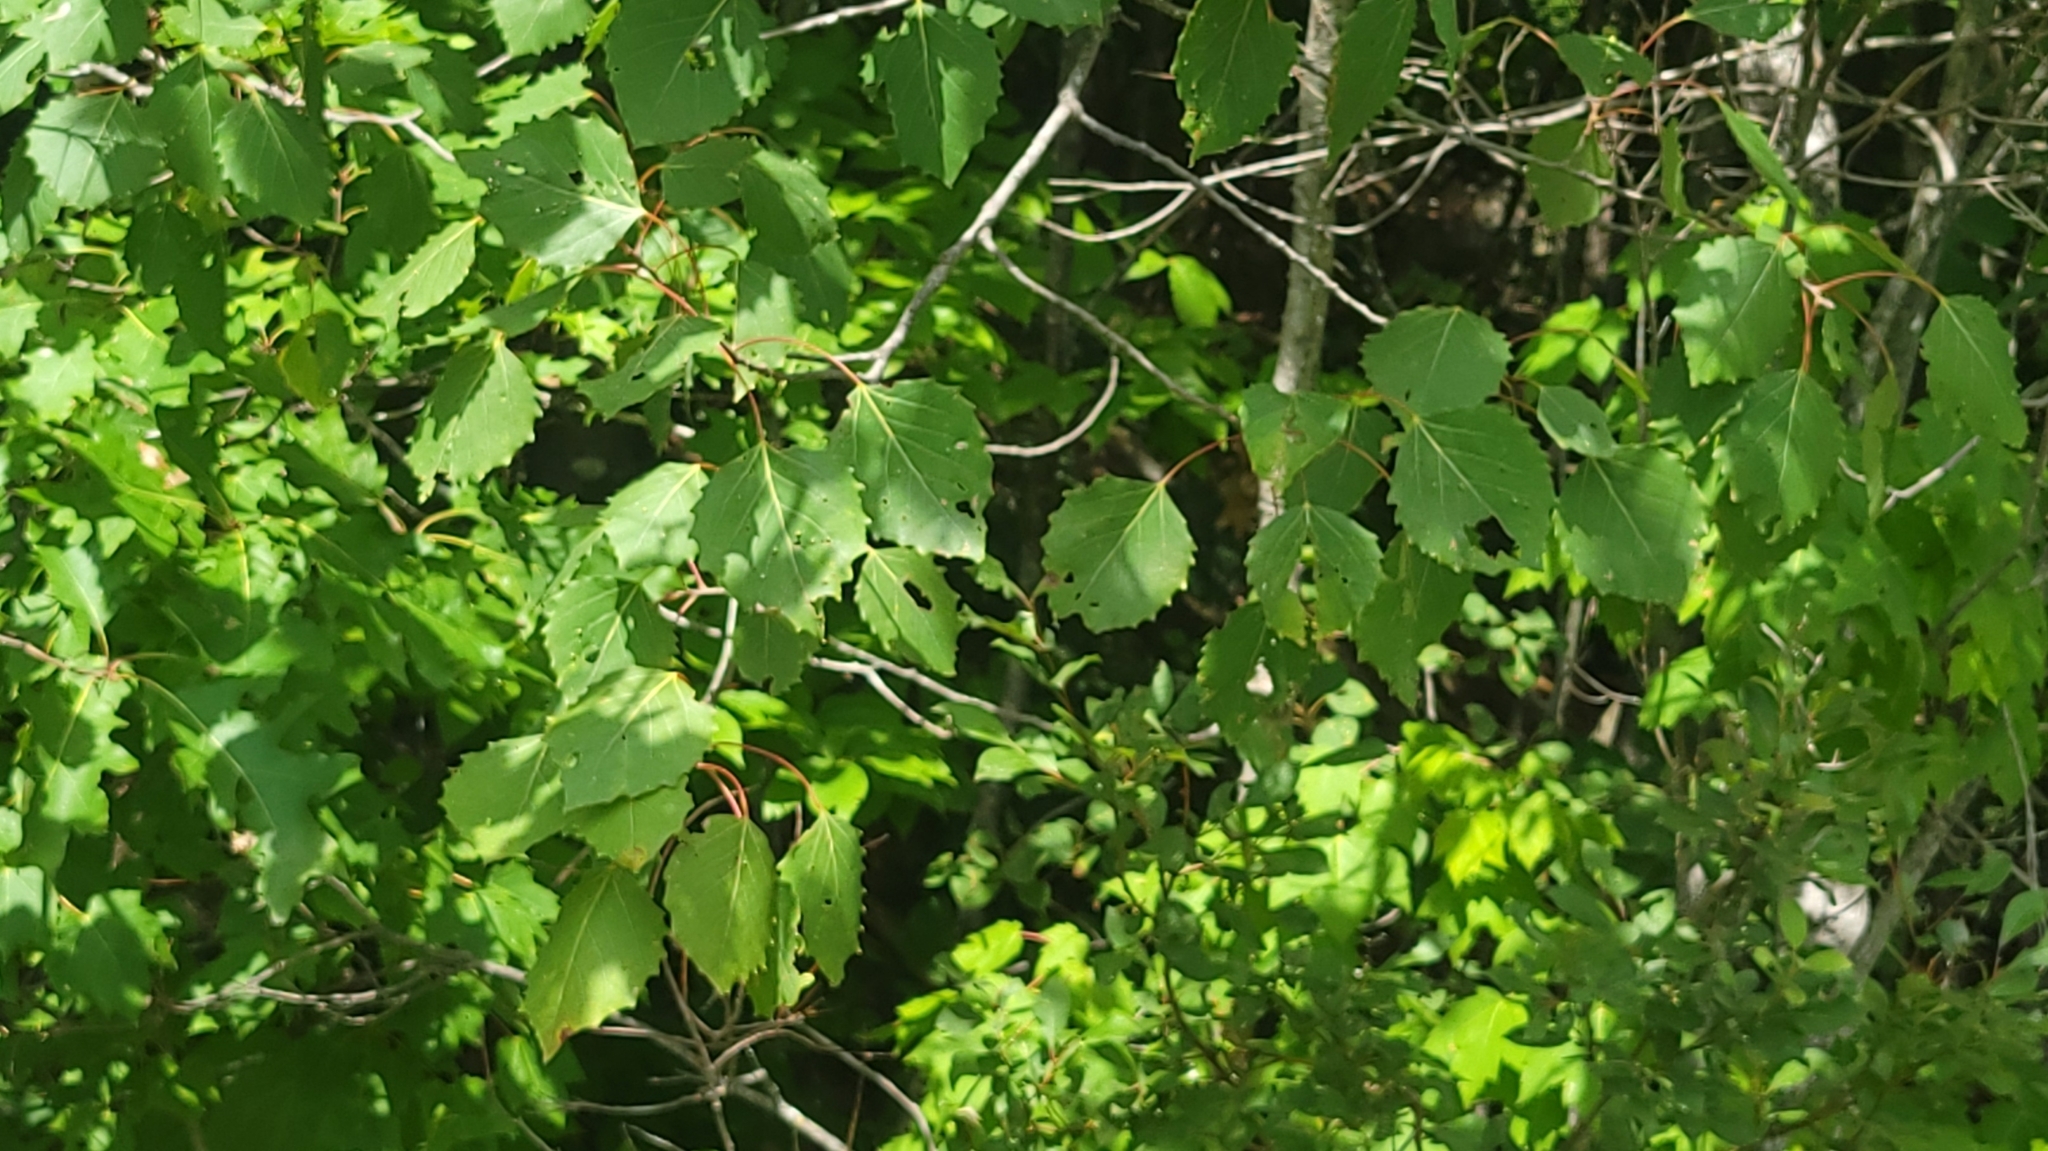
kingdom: Plantae
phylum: Tracheophyta
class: Magnoliopsida
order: Malpighiales
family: Salicaceae
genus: Populus
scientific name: Populus grandidentata
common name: Bigtooth aspen
